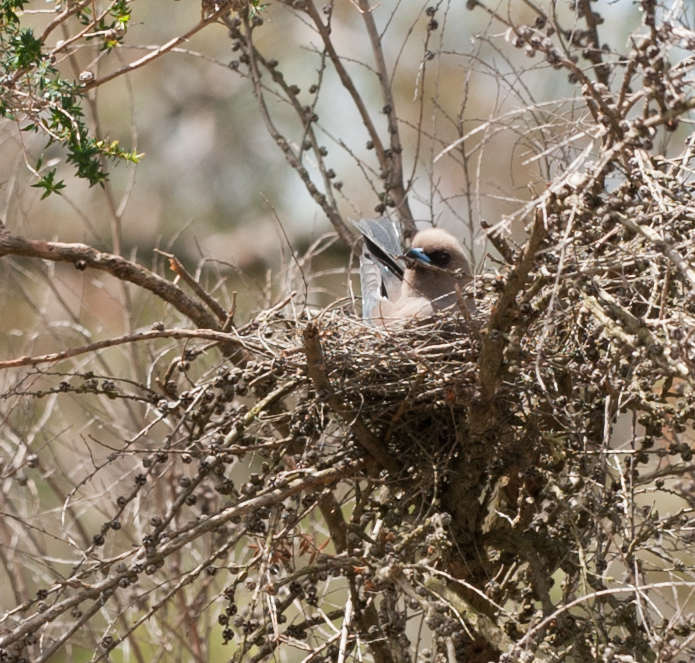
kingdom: Animalia
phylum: Chordata
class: Aves
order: Passeriformes
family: Artamidae
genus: Artamus
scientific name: Artamus cyanopterus
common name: Dusky woodswallow
